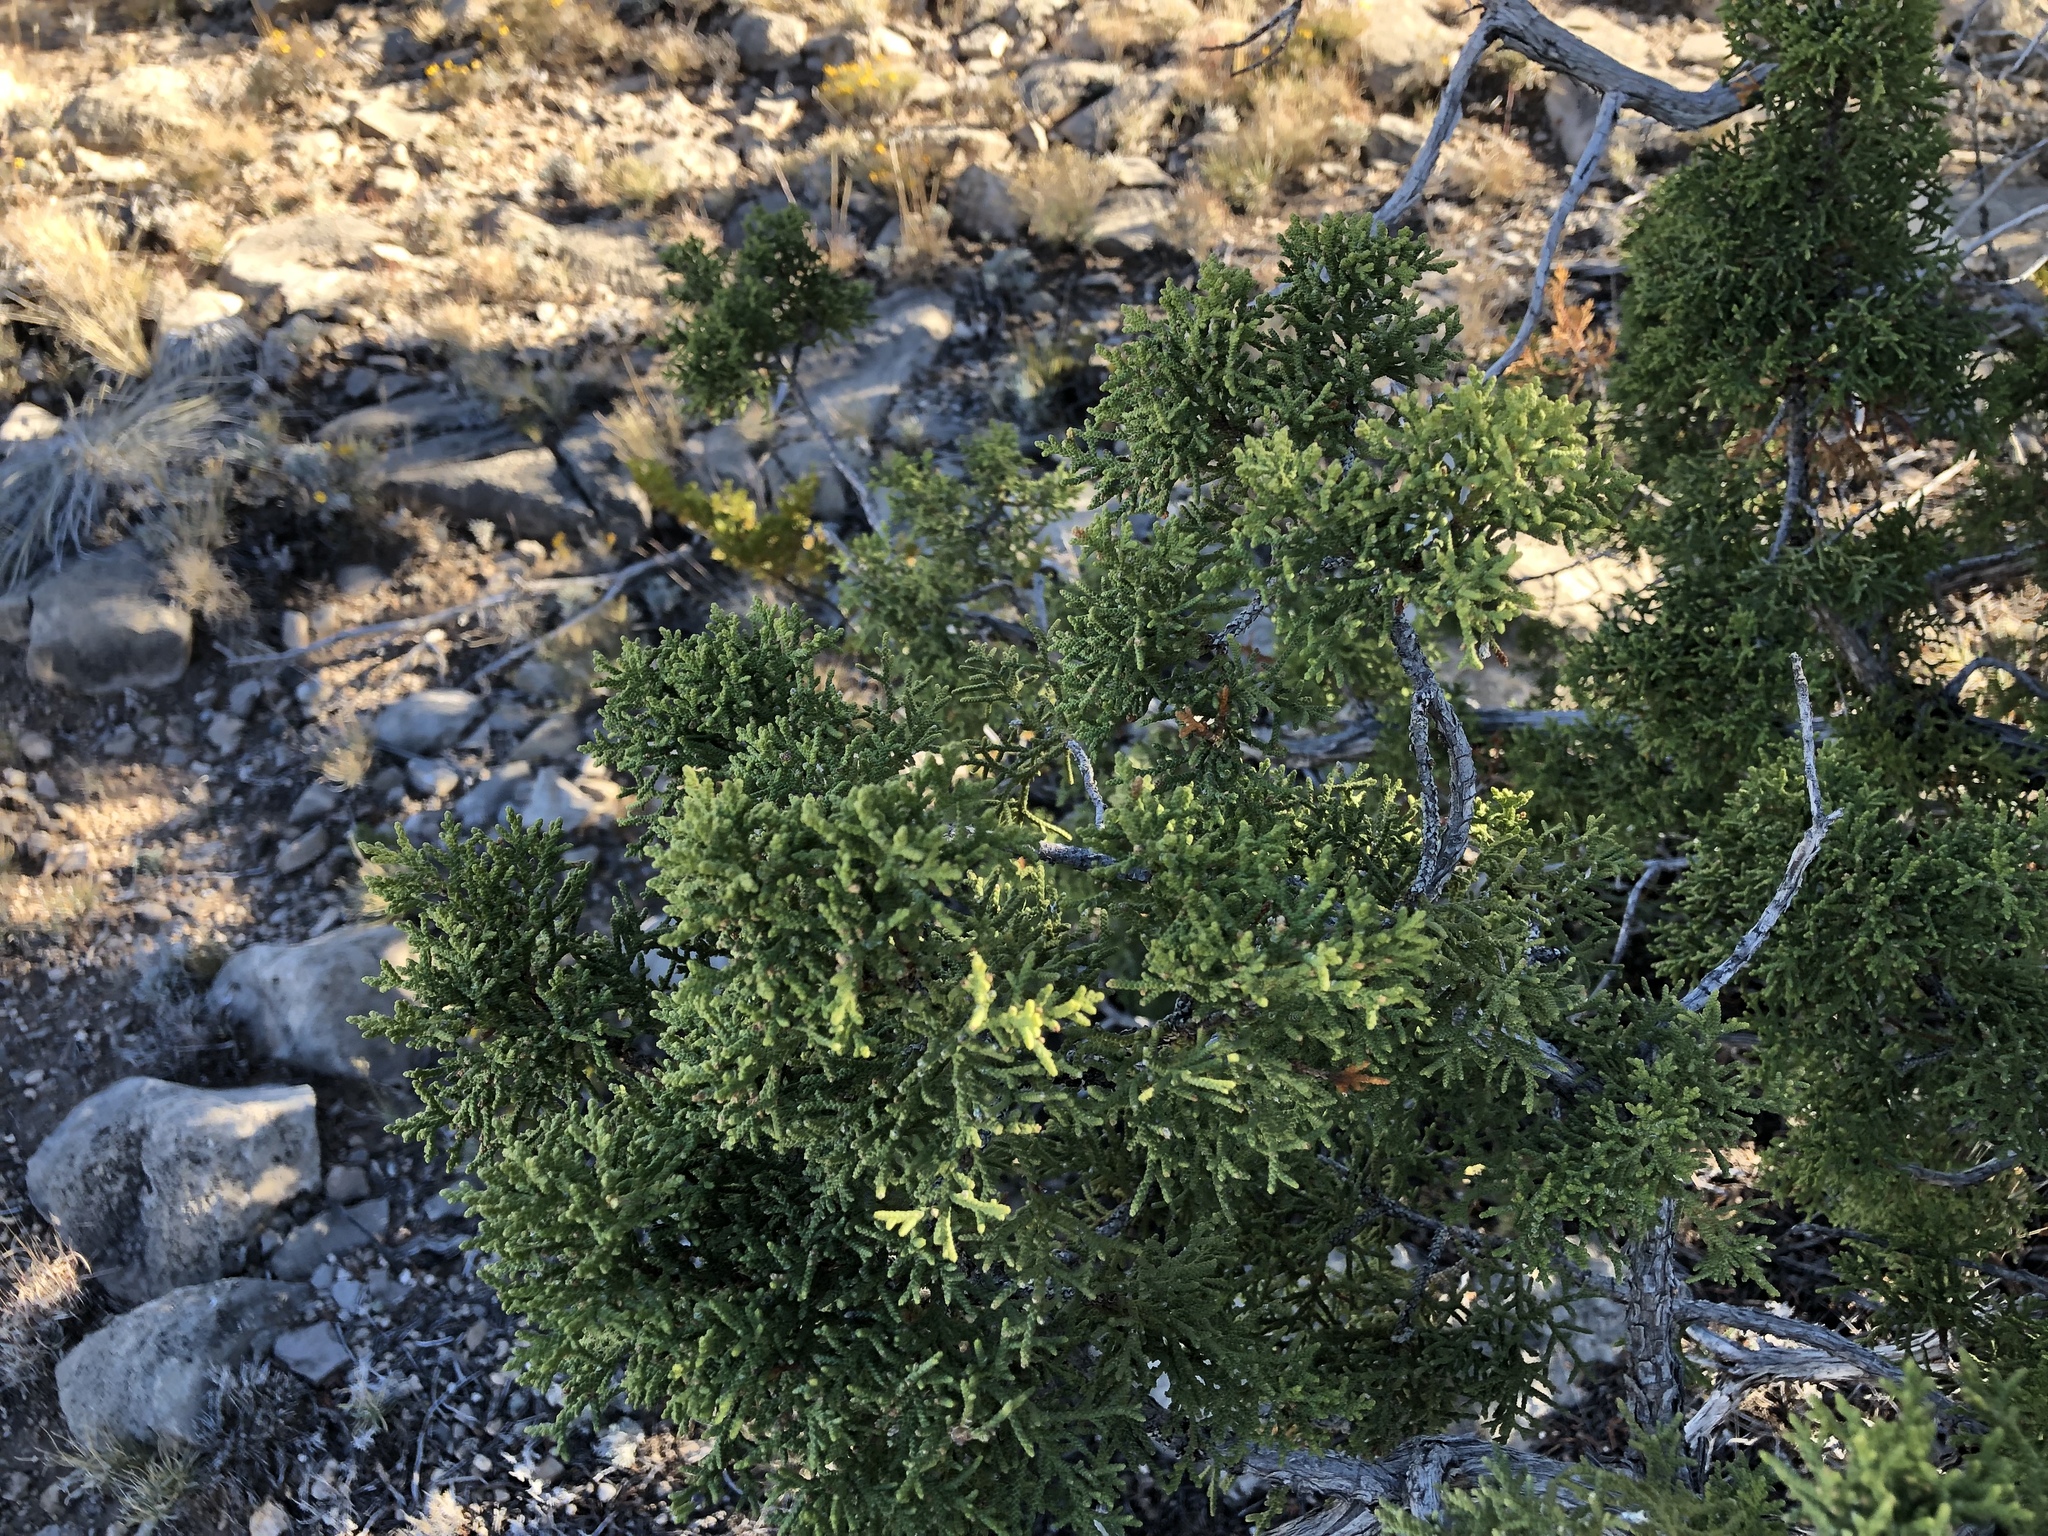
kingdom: Plantae
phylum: Tracheophyta
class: Pinopsida
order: Pinales
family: Cupressaceae
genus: Juniperus
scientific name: Juniperus monosperma
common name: One-seed juniper
